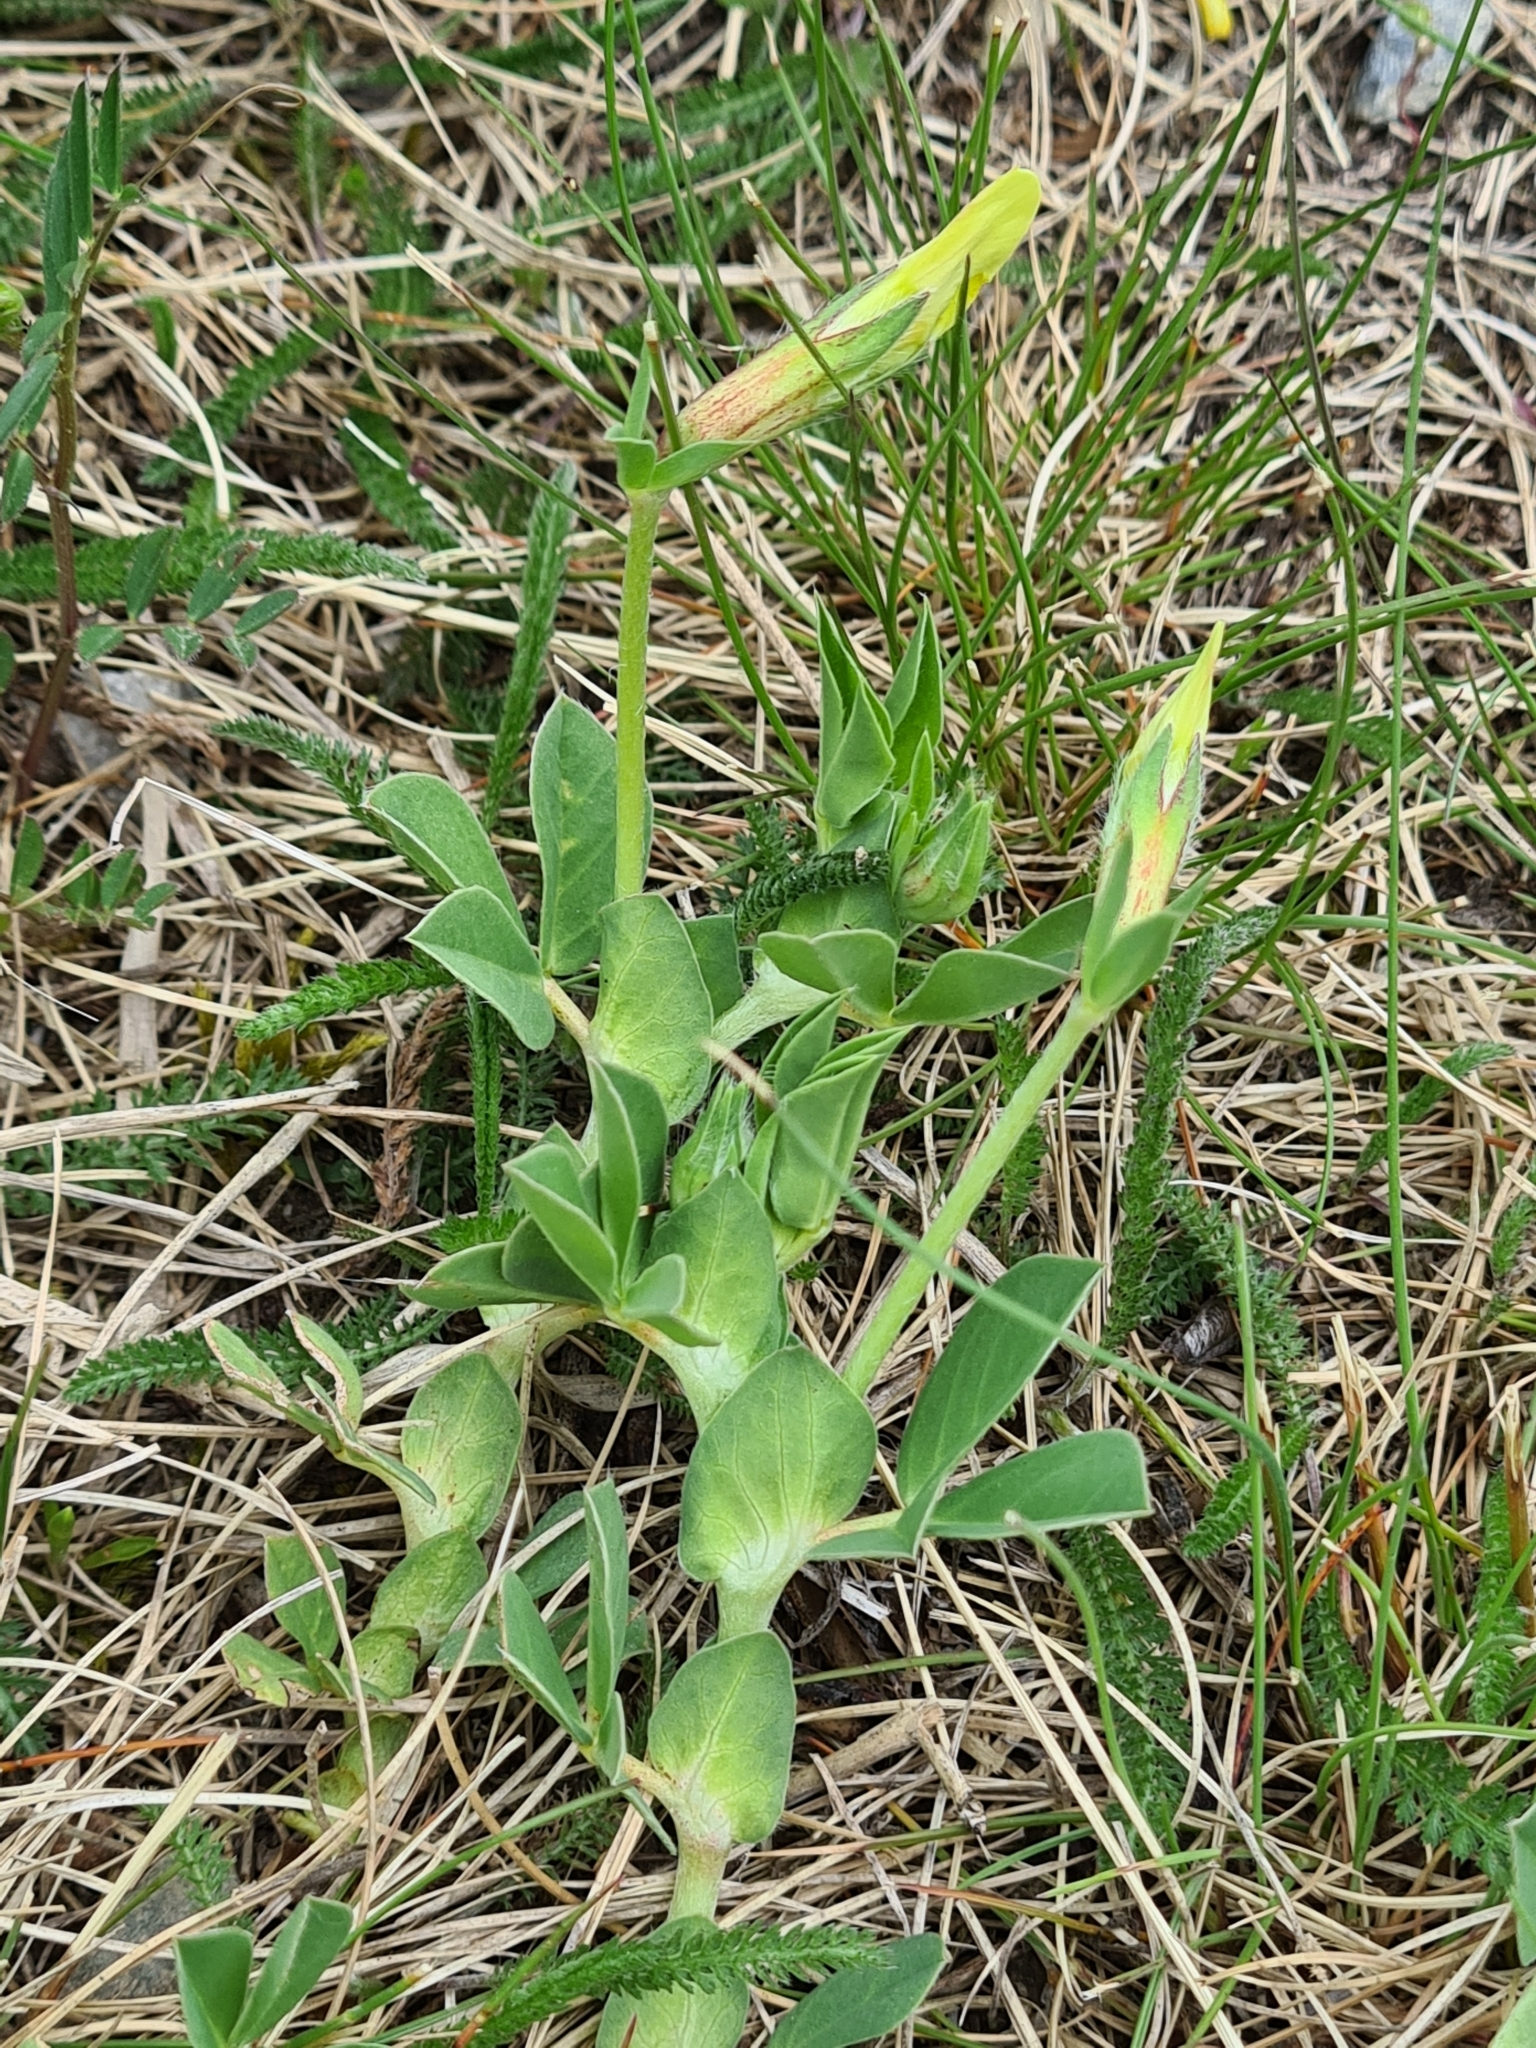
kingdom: Plantae
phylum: Tracheophyta
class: Magnoliopsida
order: Fabales
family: Fabaceae
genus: Lotus
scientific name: Lotus maritimus
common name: Dragon's-teeth
